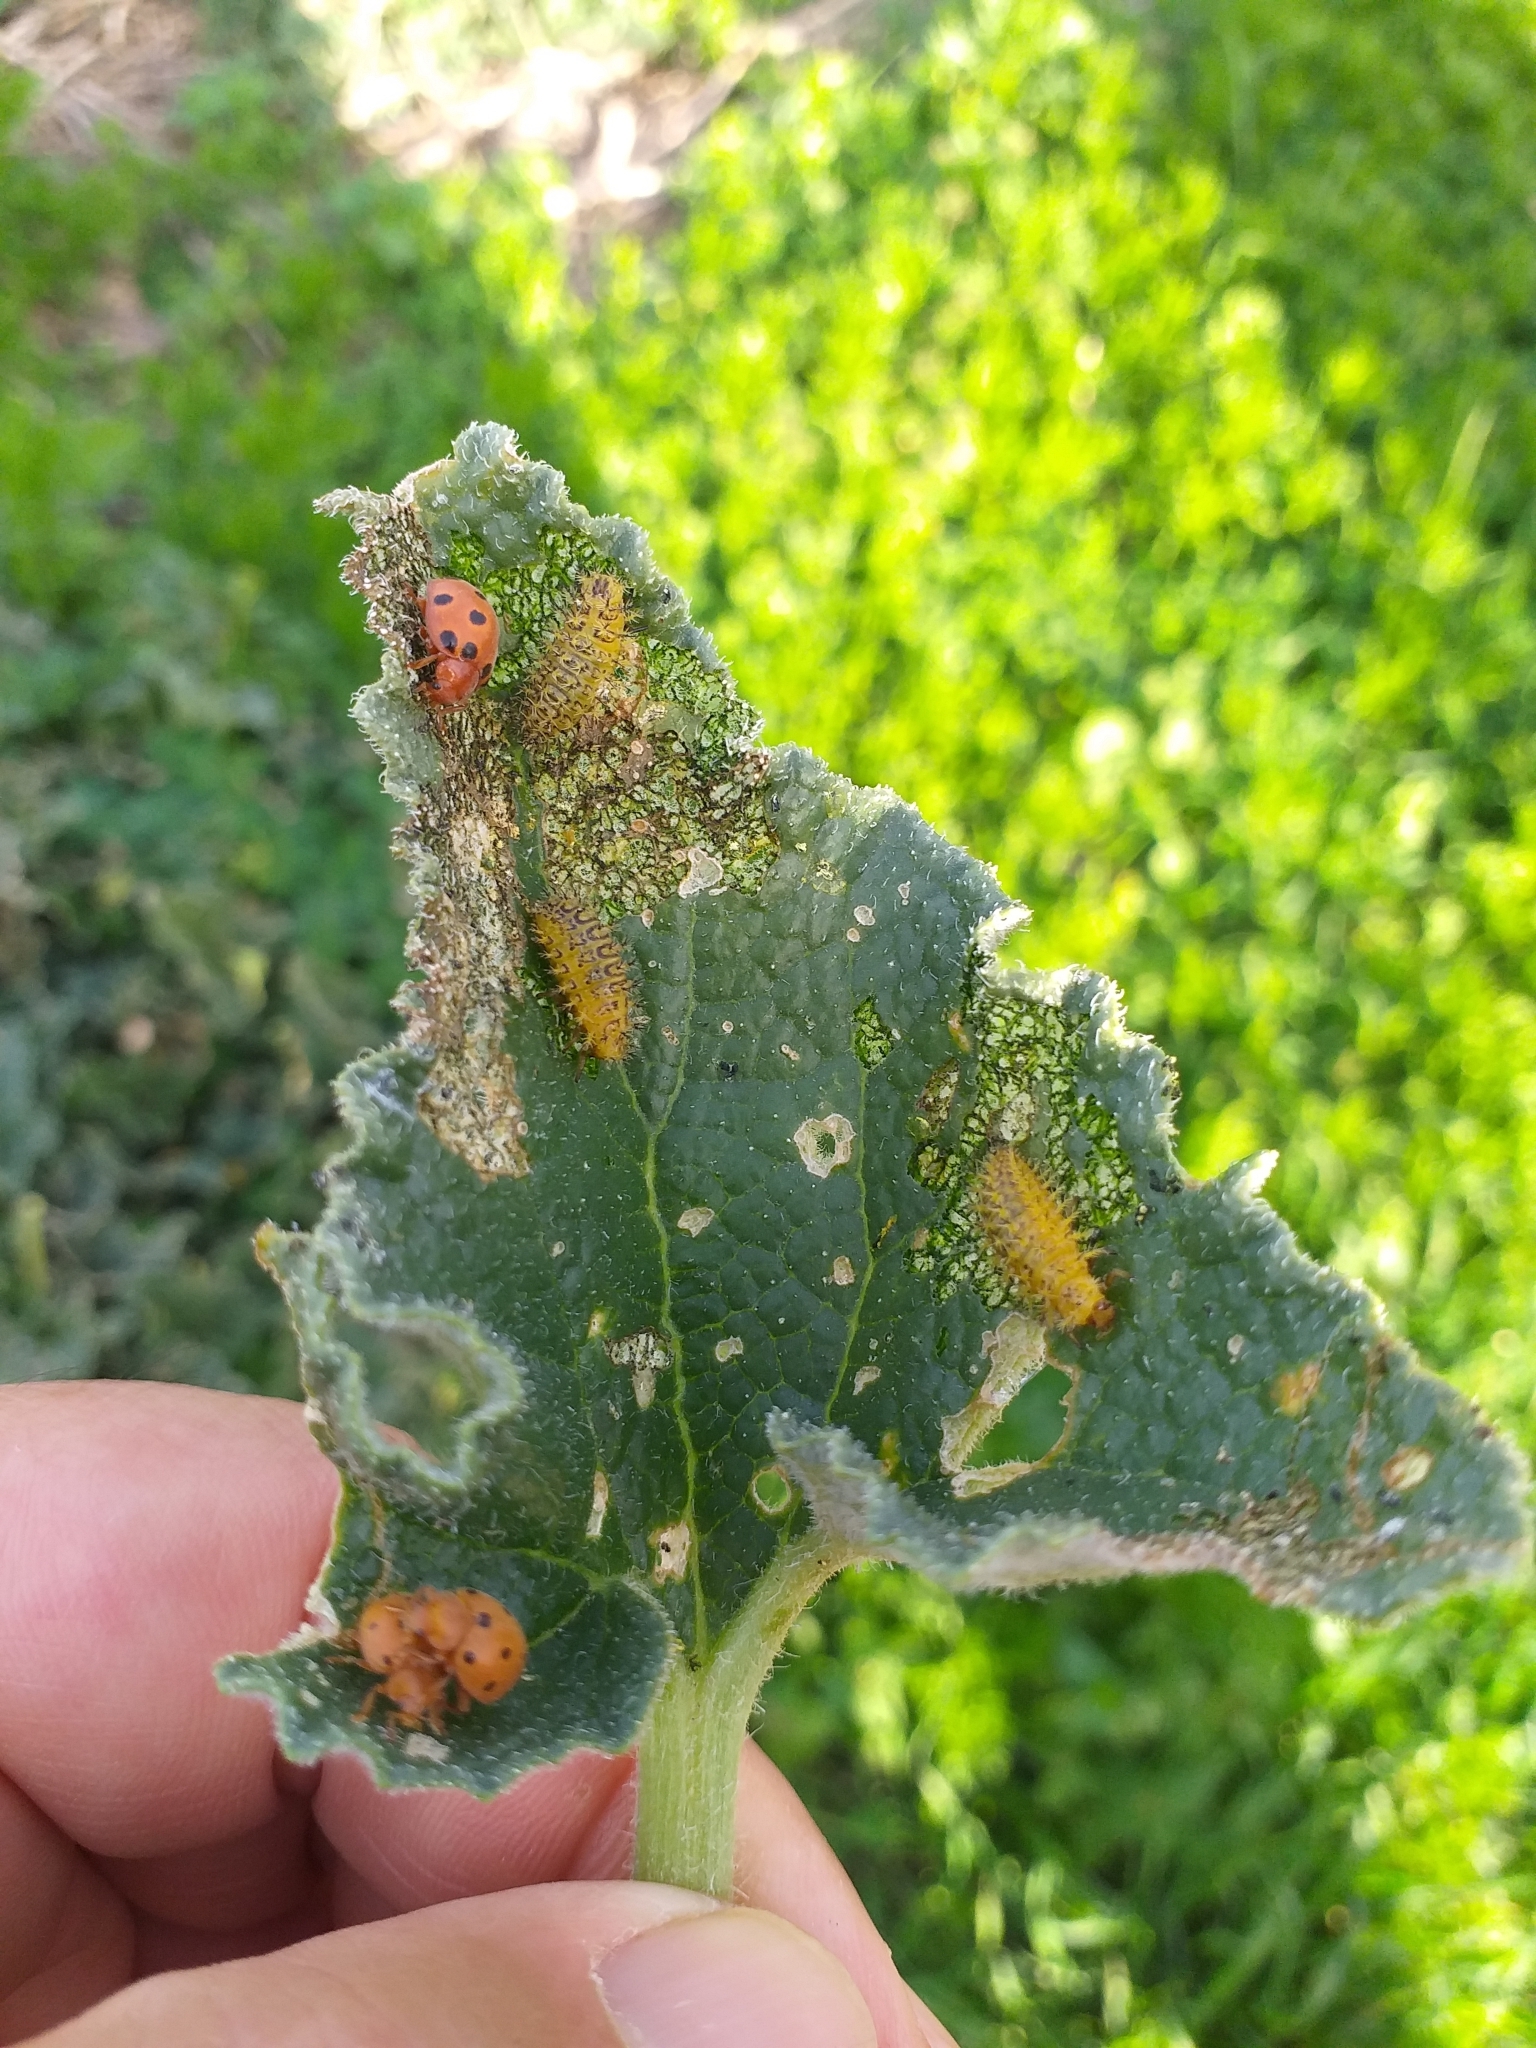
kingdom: Animalia
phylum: Arthropoda
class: Insecta
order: Coleoptera
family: Coccinellidae
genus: Chnootriba
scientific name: Chnootriba elaterii
